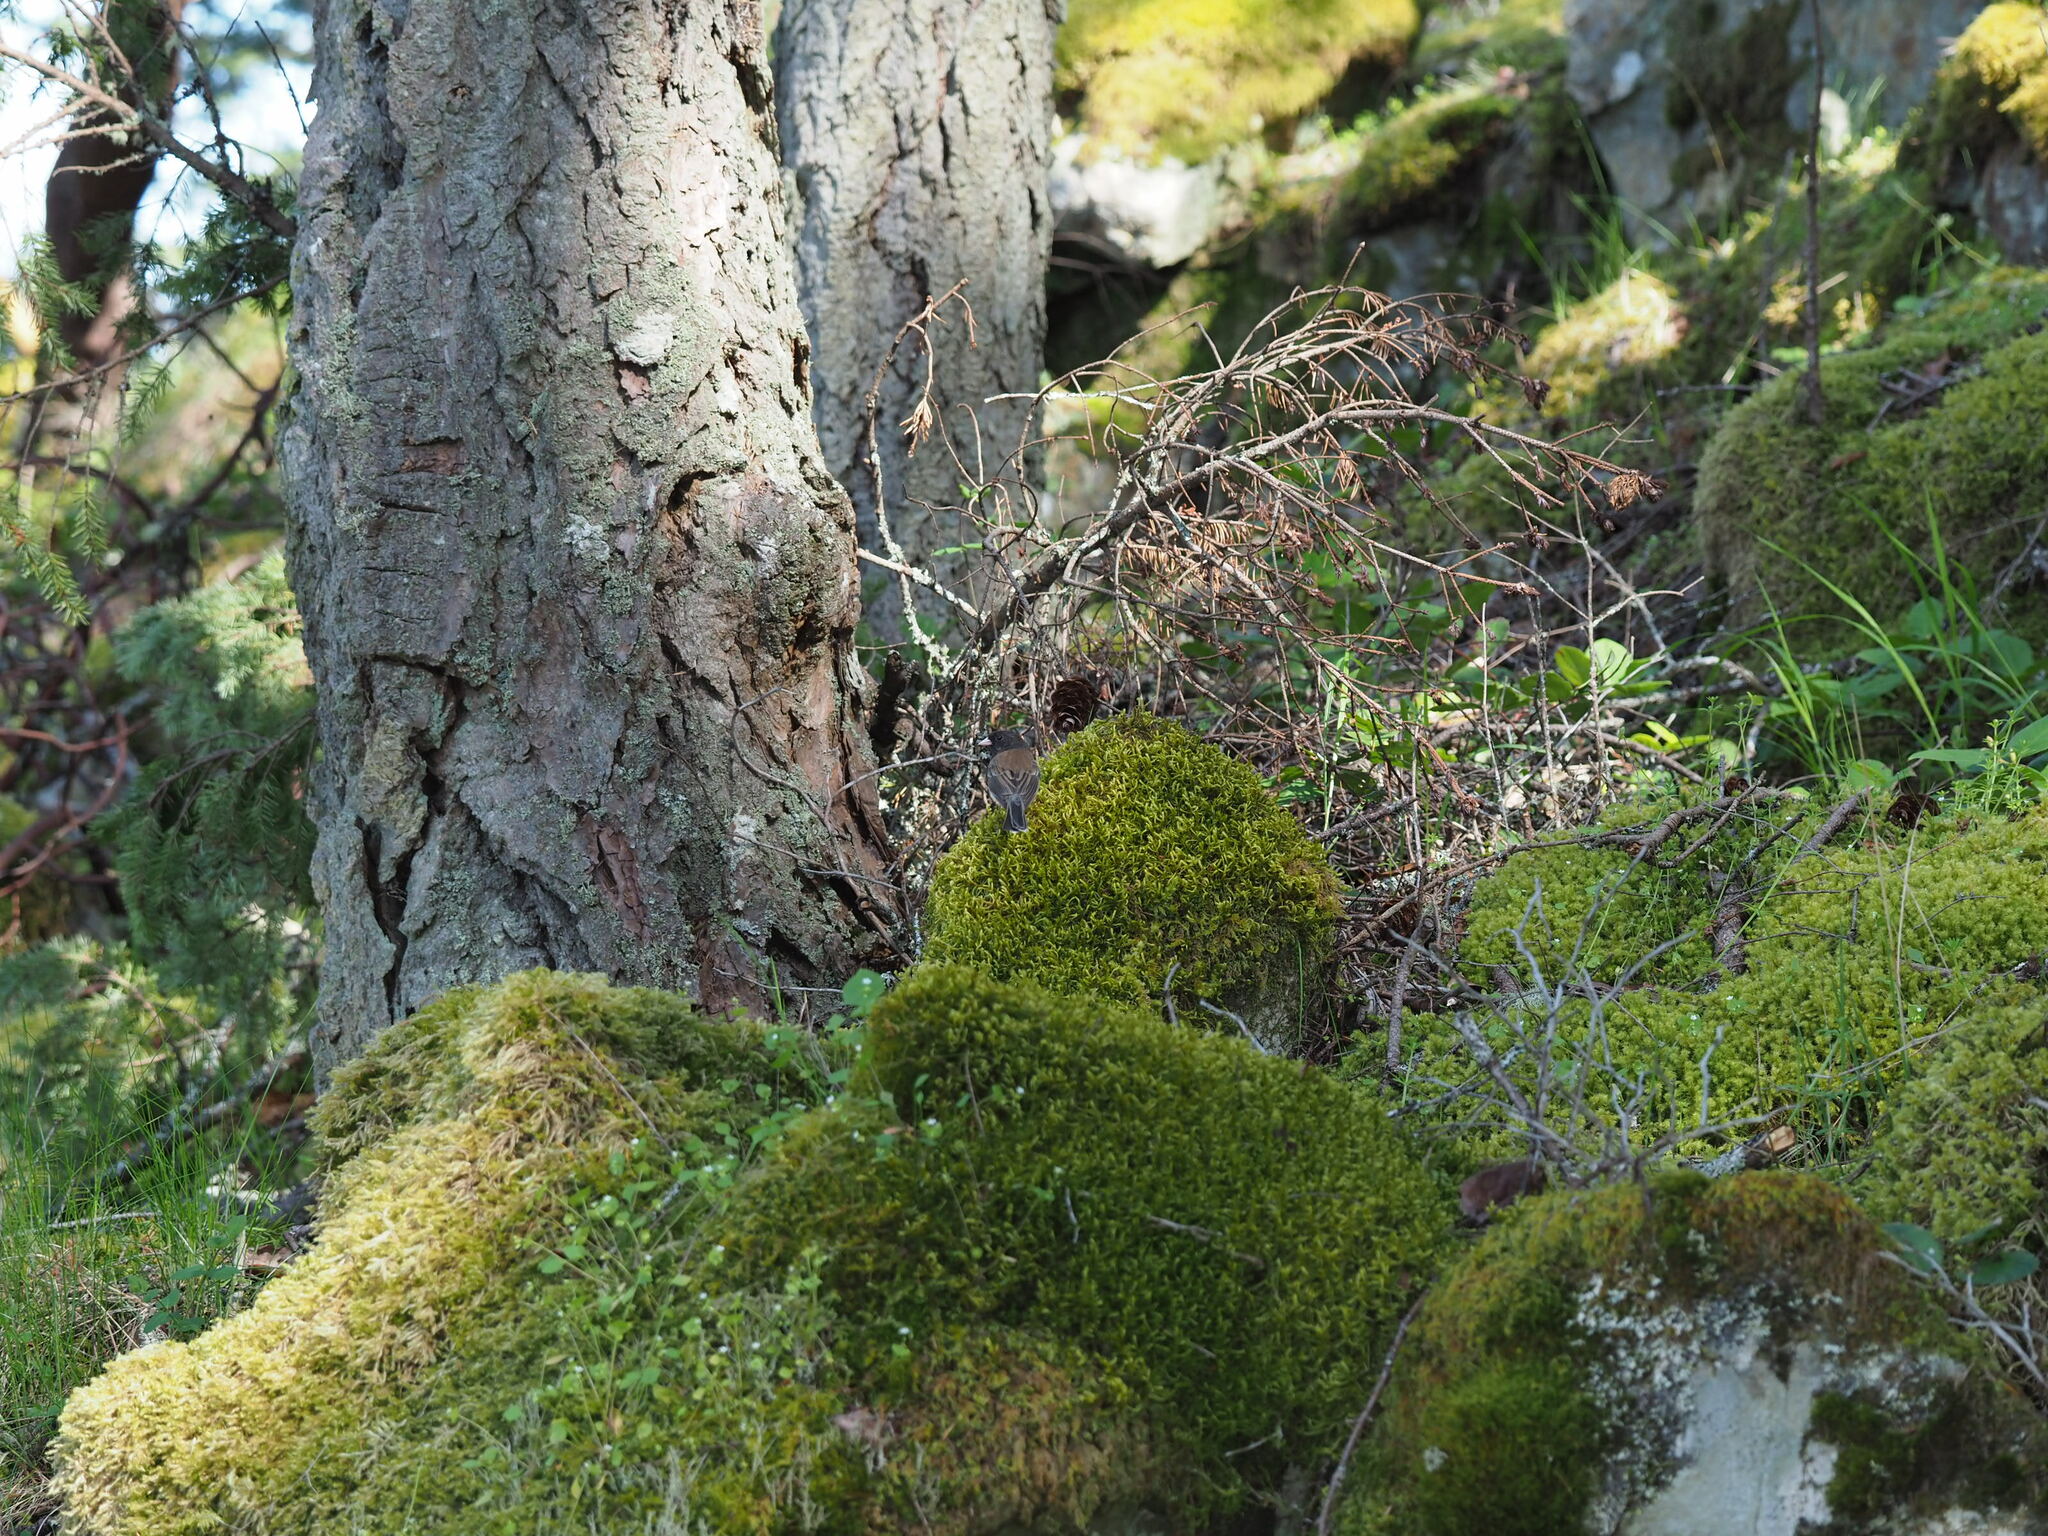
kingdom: Animalia
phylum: Chordata
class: Aves
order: Passeriformes
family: Passerellidae
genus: Junco
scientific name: Junco hyemalis
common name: Dark-eyed junco
